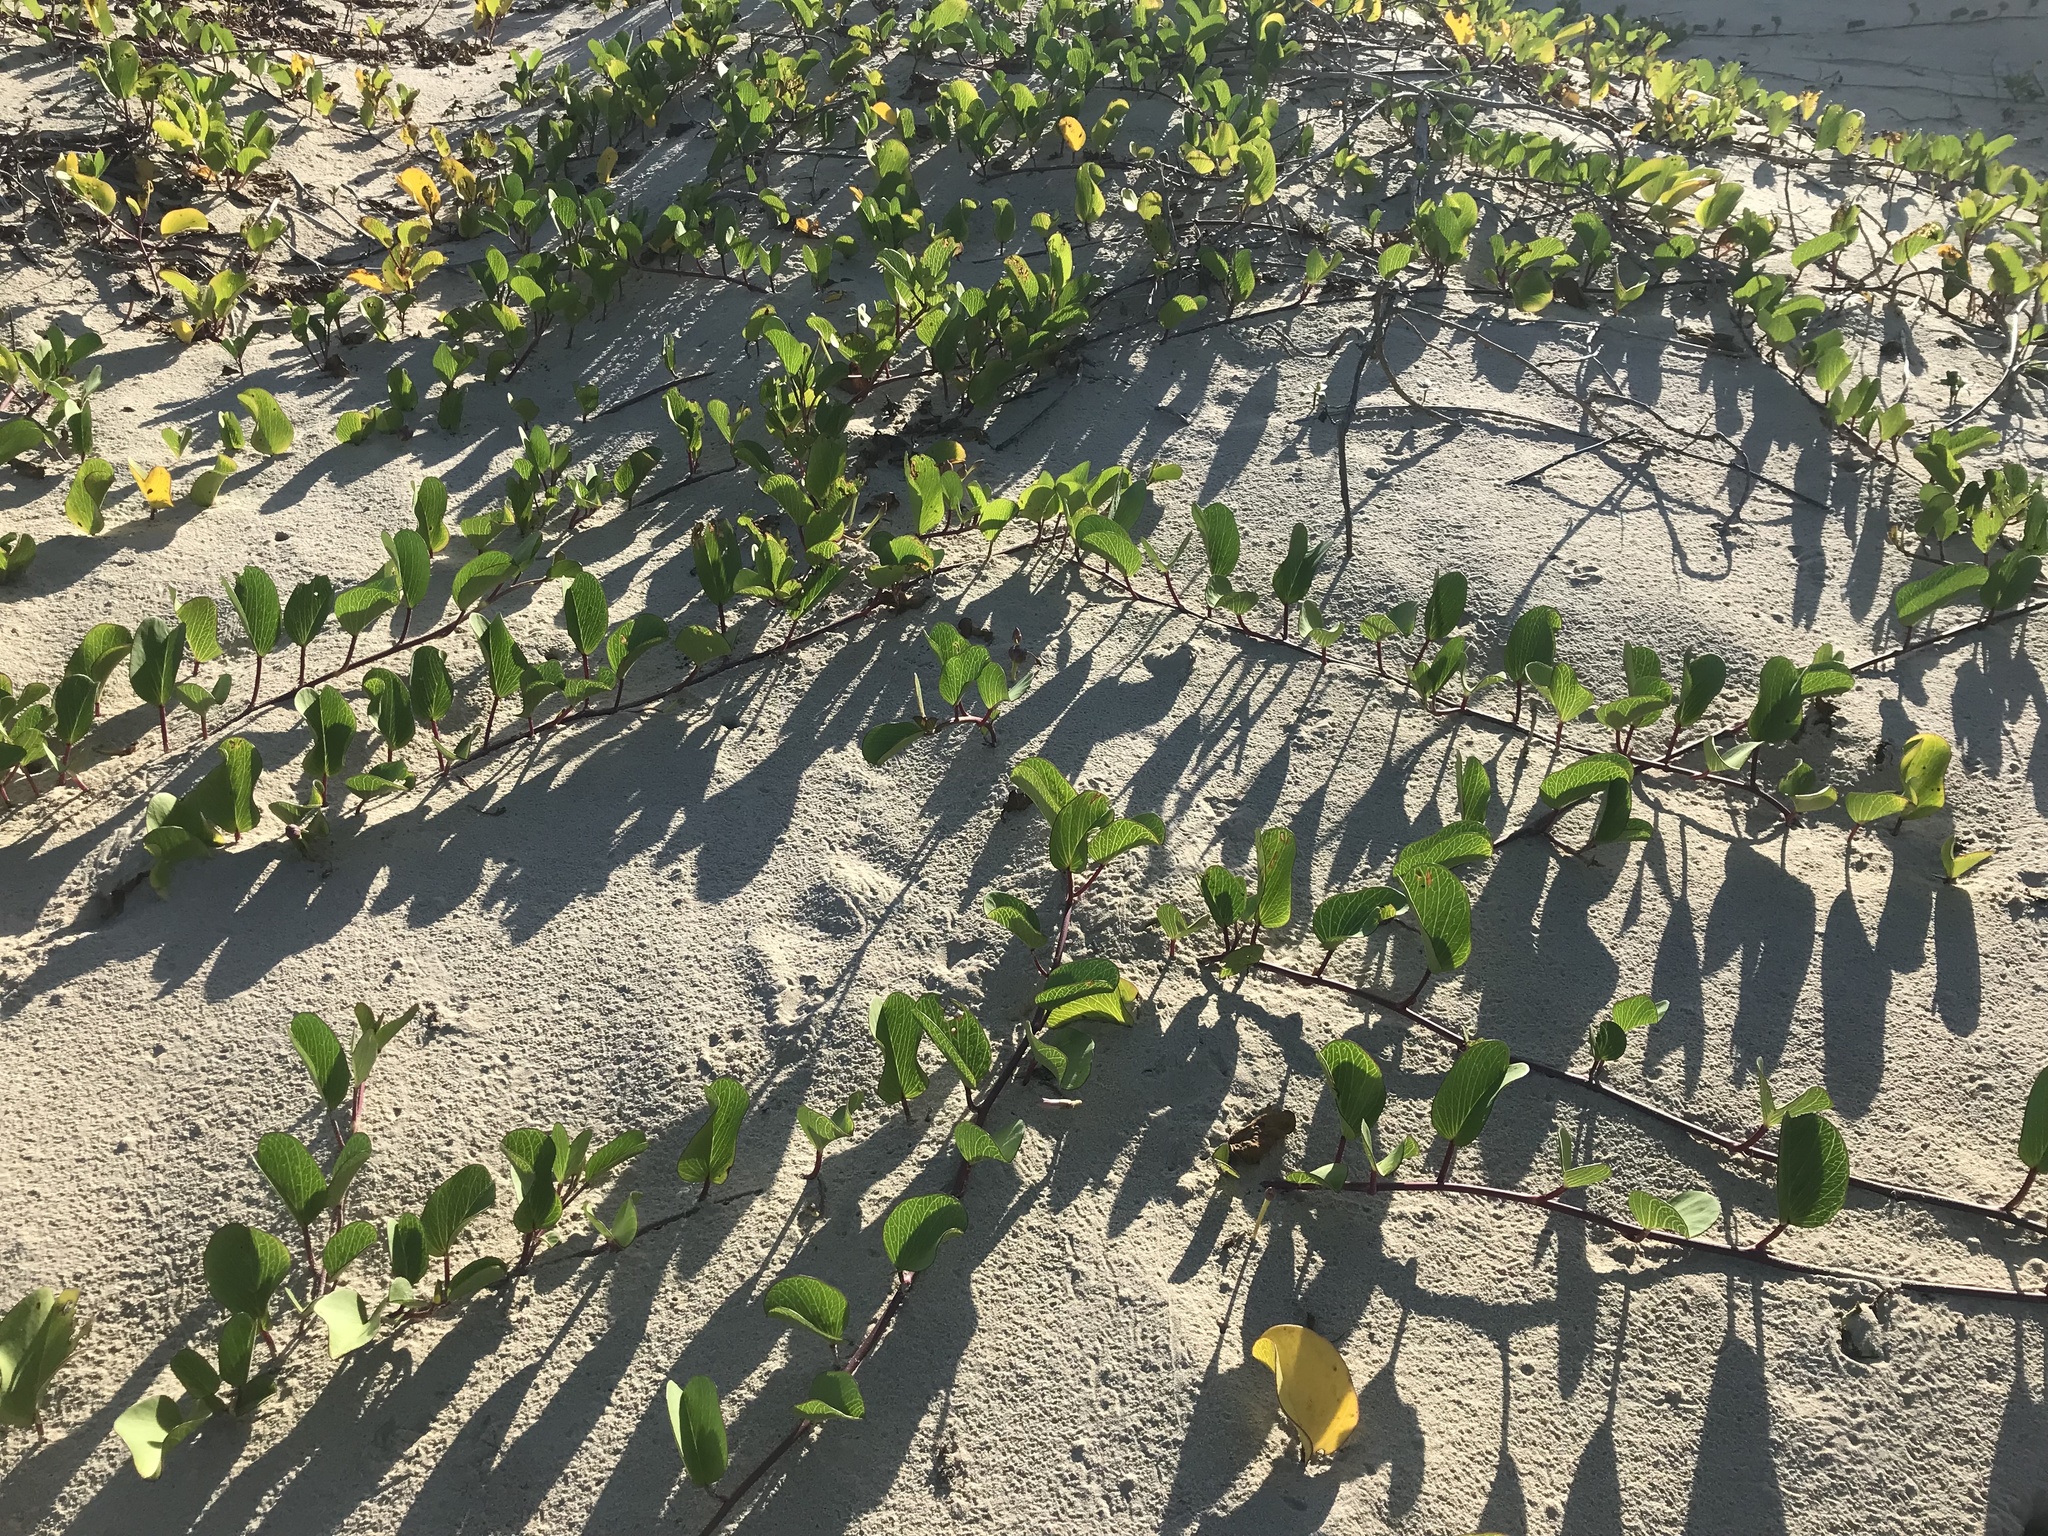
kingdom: Plantae
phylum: Tracheophyta
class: Magnoliopsida
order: Solanales
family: Convolvulaceae
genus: Ipomoea
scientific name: Ipomoea pes-caprae
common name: Beach morning glory
